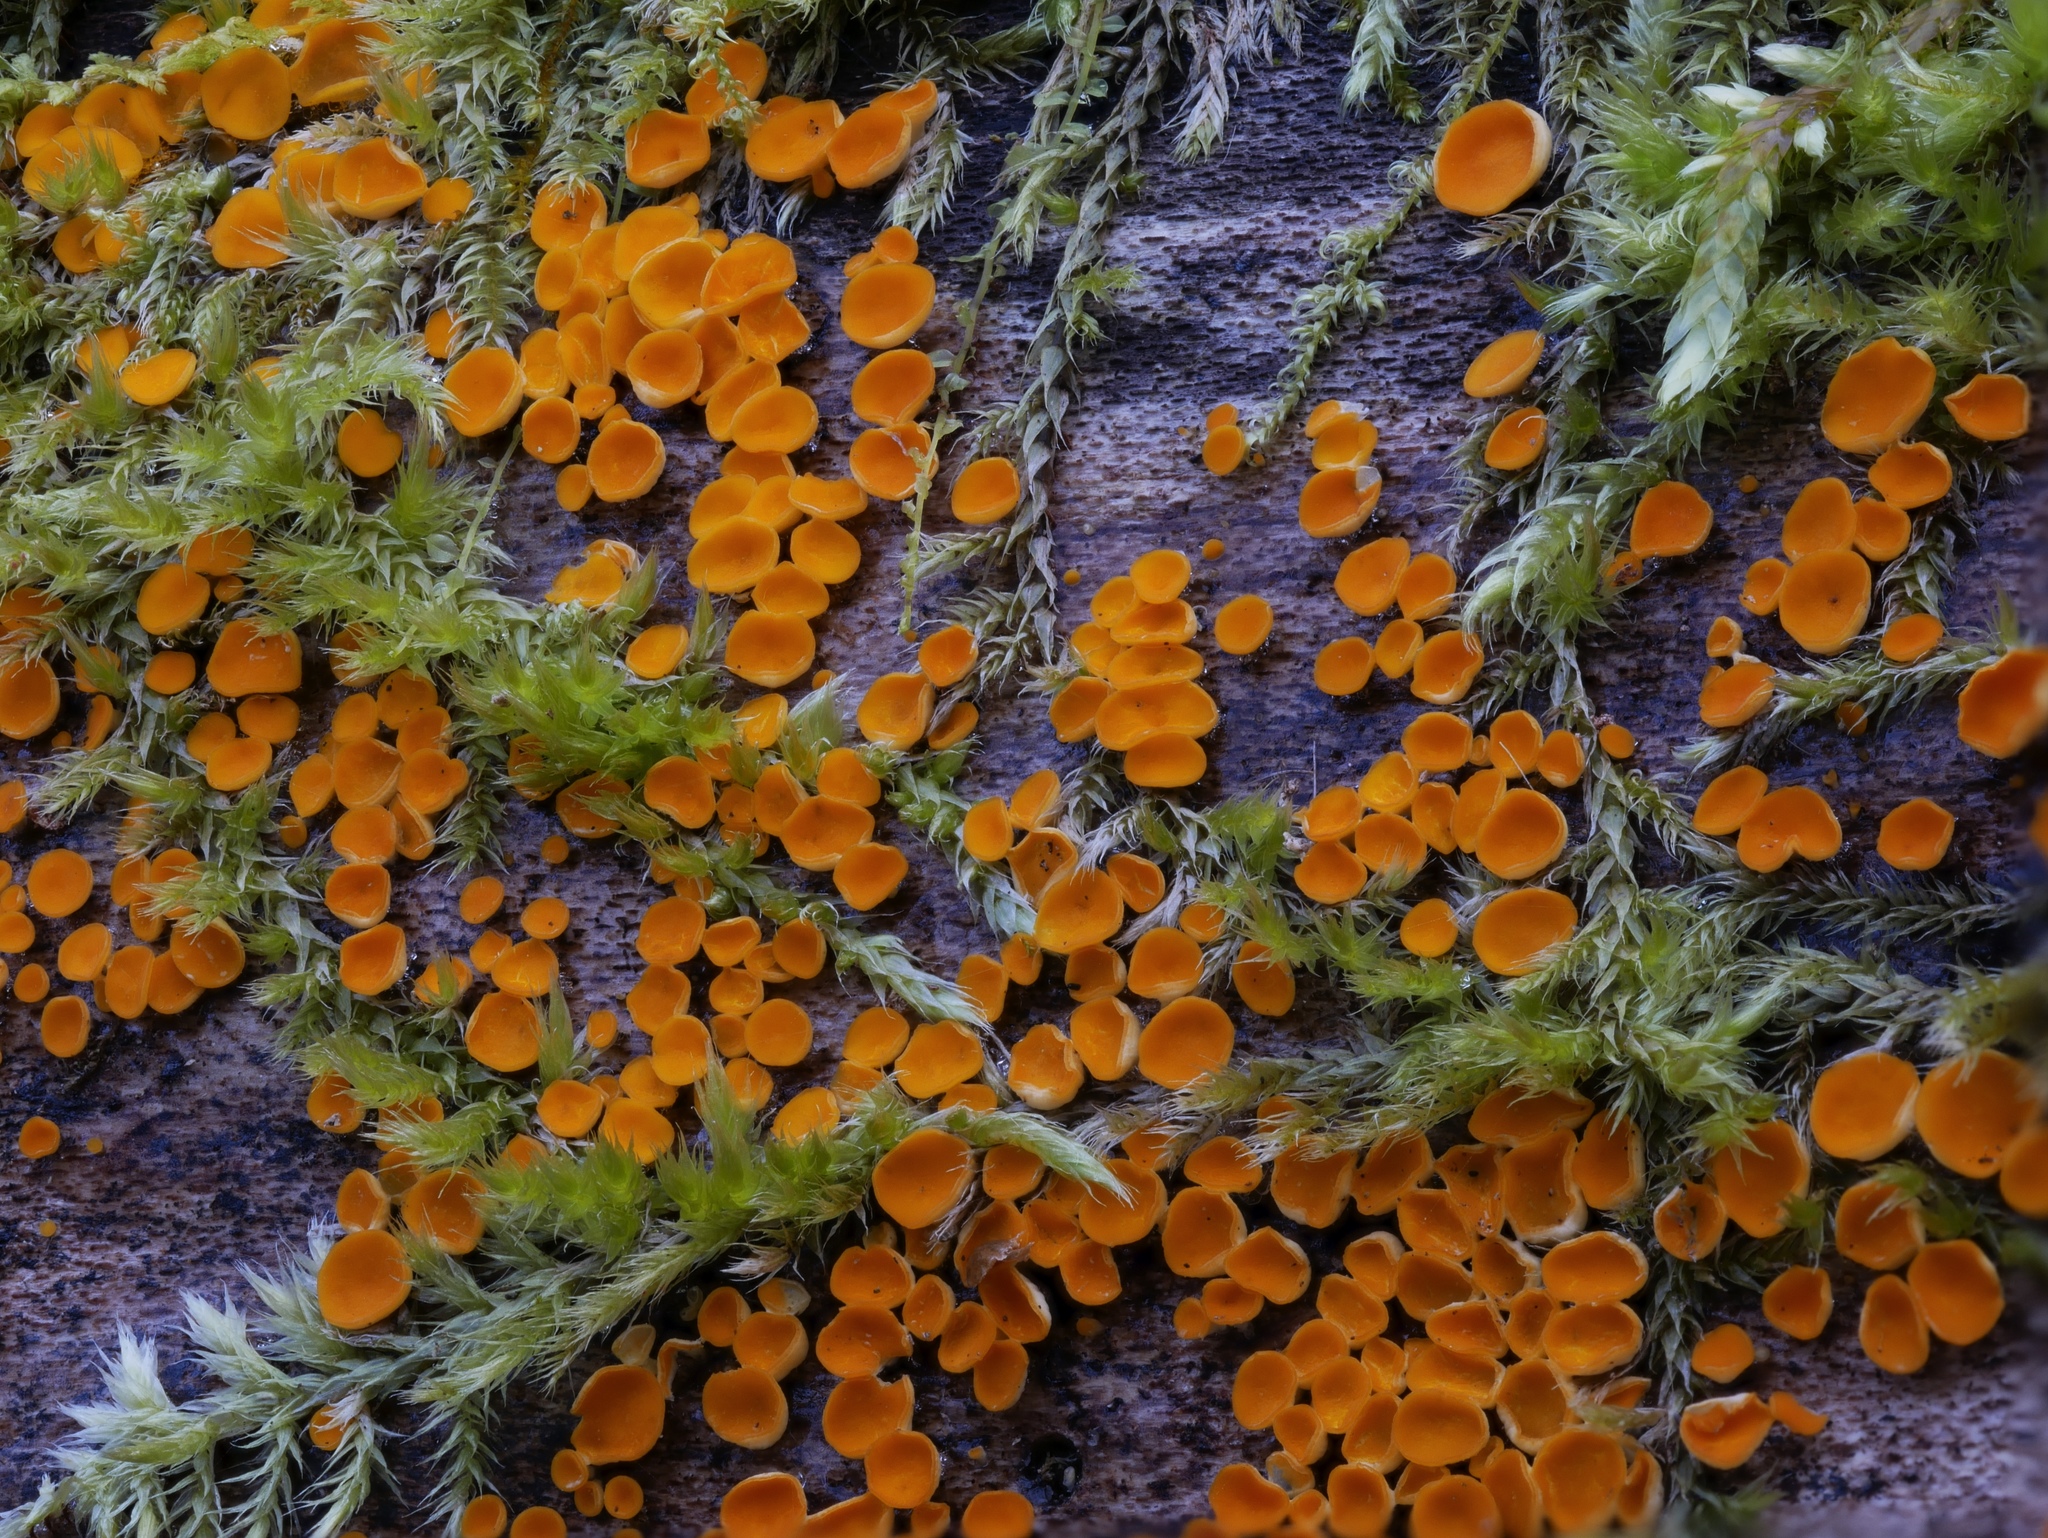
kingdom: Fungi
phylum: Ascomycota
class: Leotiomycetes
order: Helotiales
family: Pezizellaceae
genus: Calycina
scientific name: Calycina citrina
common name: Yellow fairy cups
